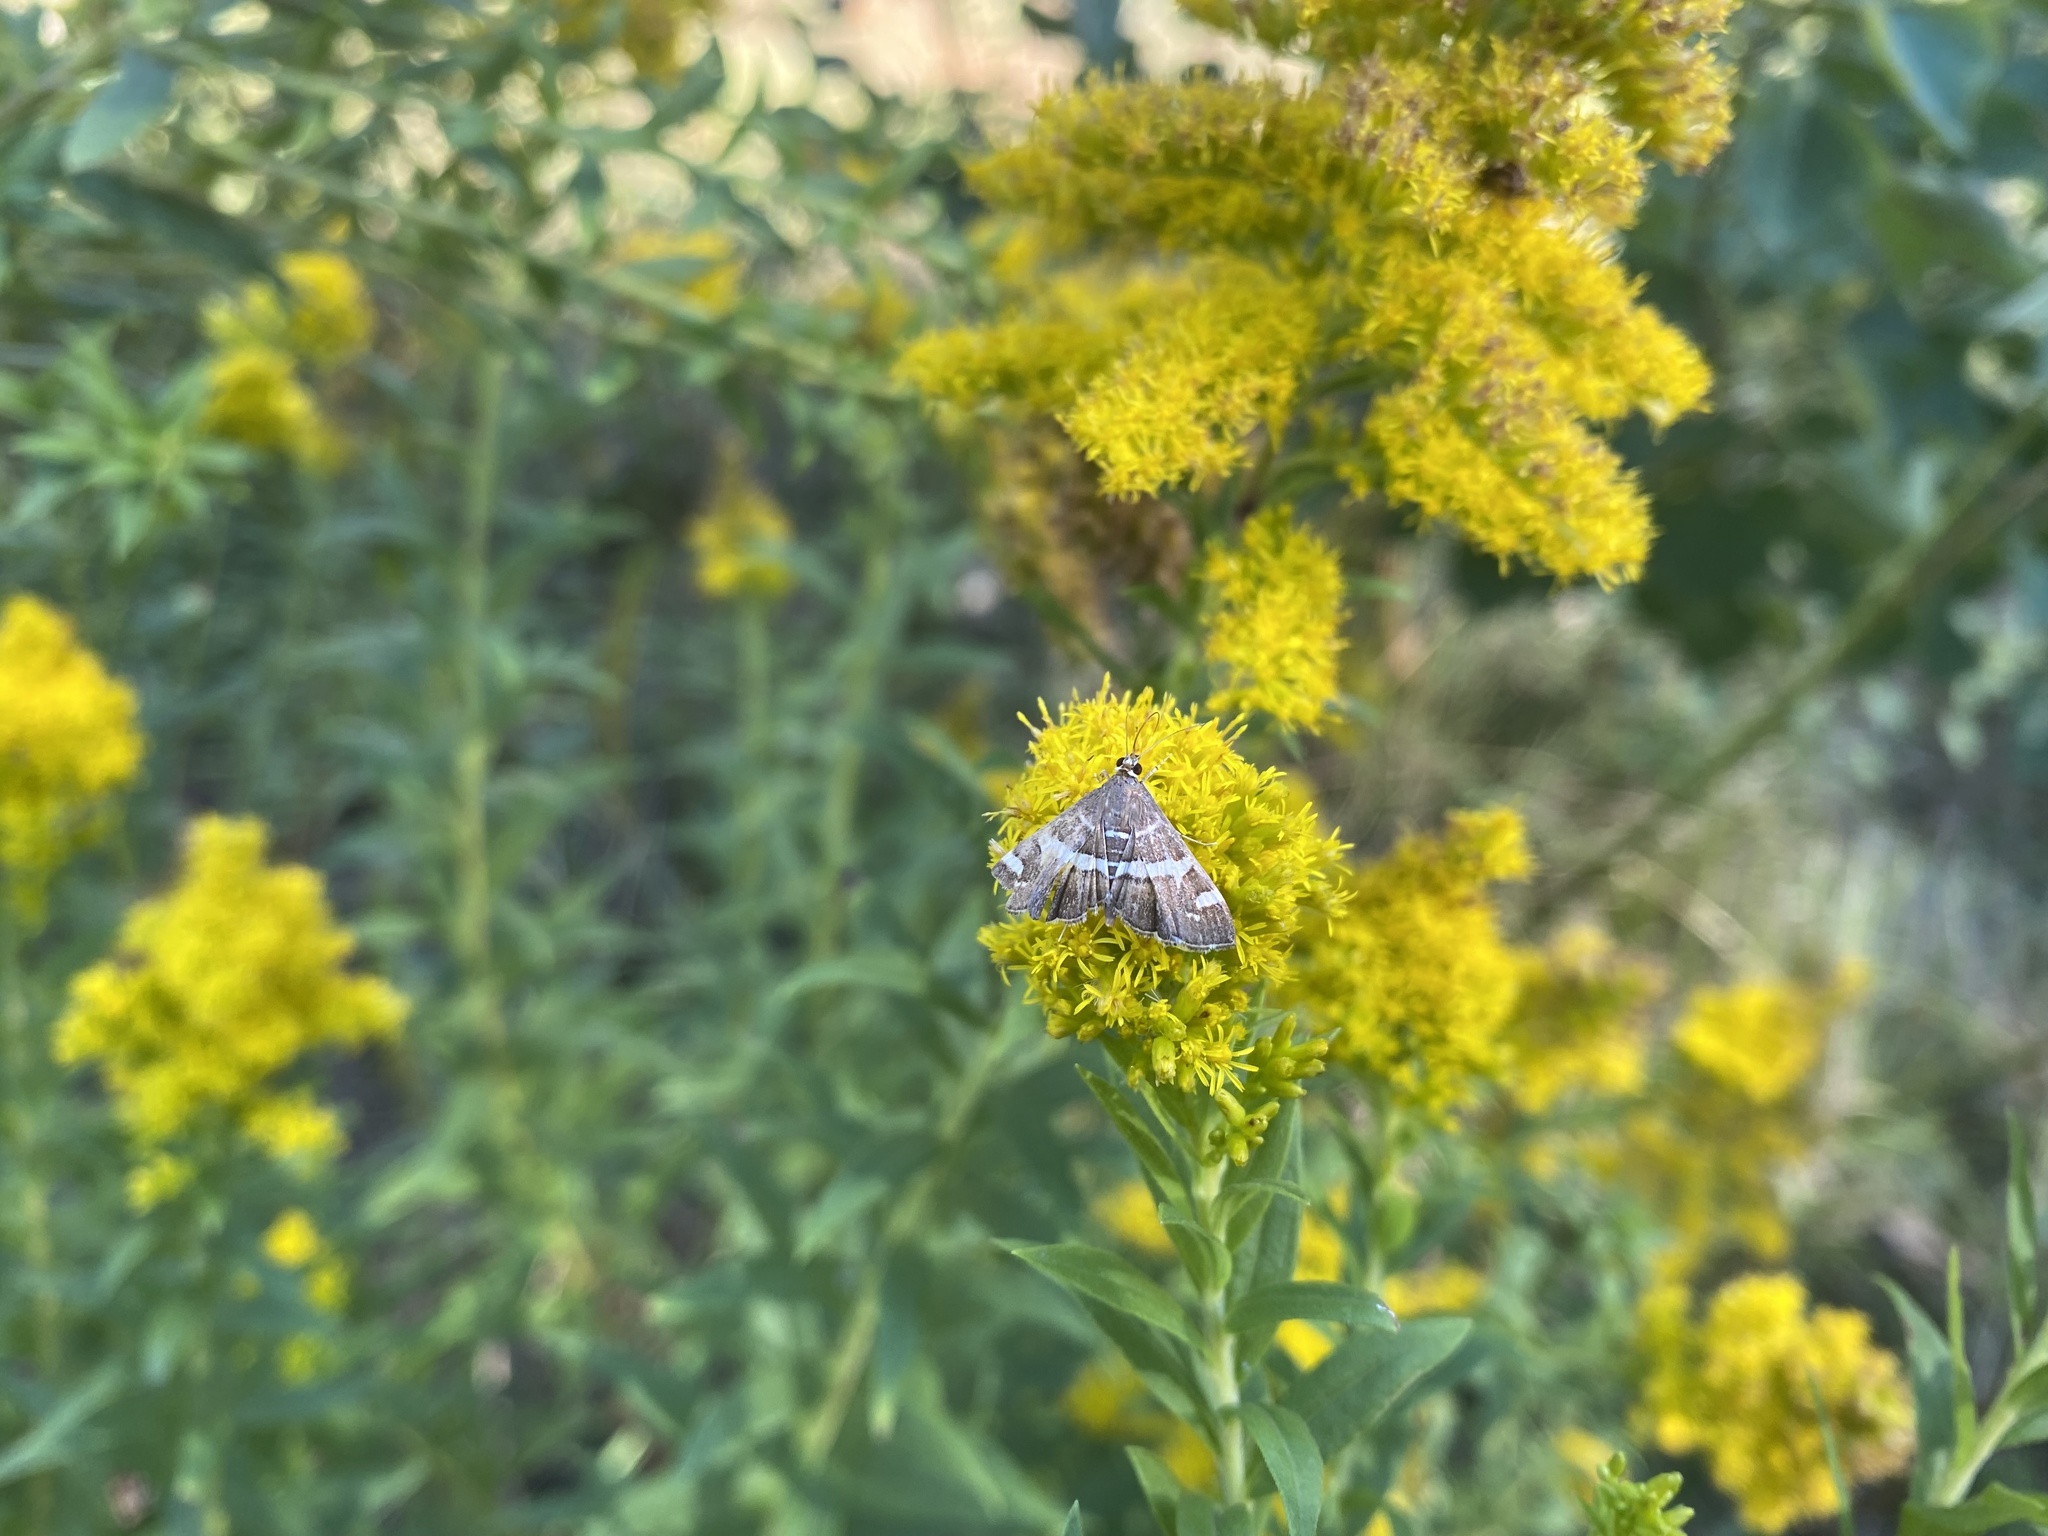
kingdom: Animalia
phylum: Arthropoda
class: Insecta
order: Lepidoptera
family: Crambidae
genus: Spoladea
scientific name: Spoladea recurvalis
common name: Beet webworm moth
